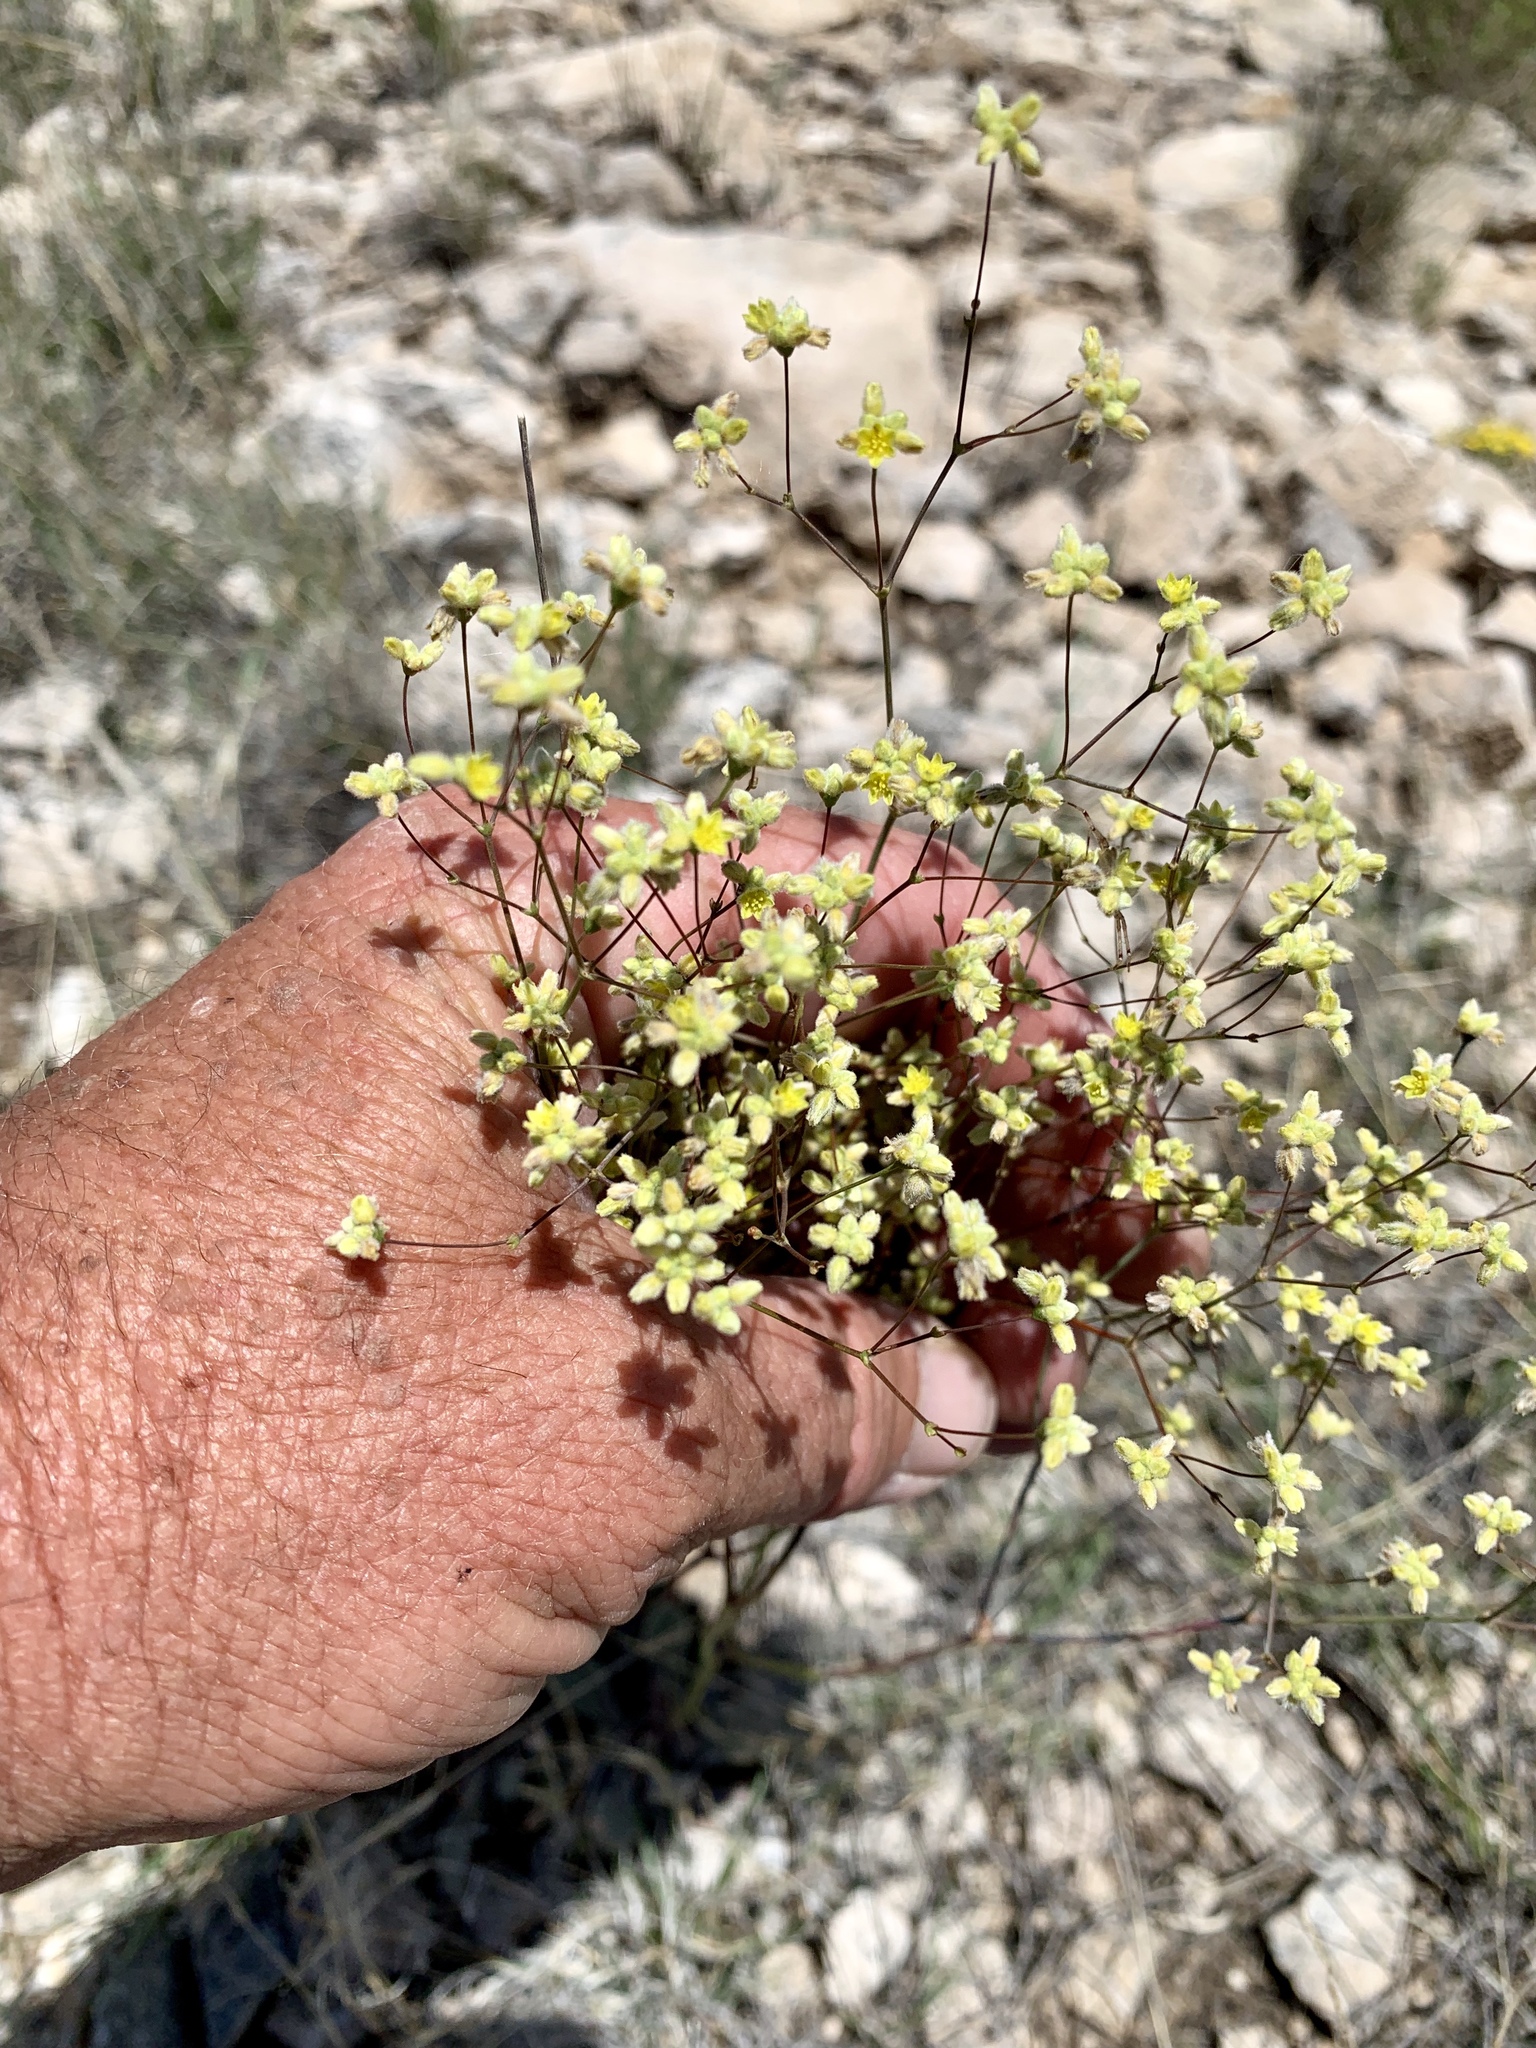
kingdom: Plantae
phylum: Tracheophyta
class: Magnoliopsida
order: Caryophyllales
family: Polygonaceae
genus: Eriogonum
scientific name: Eriogonum havardii
